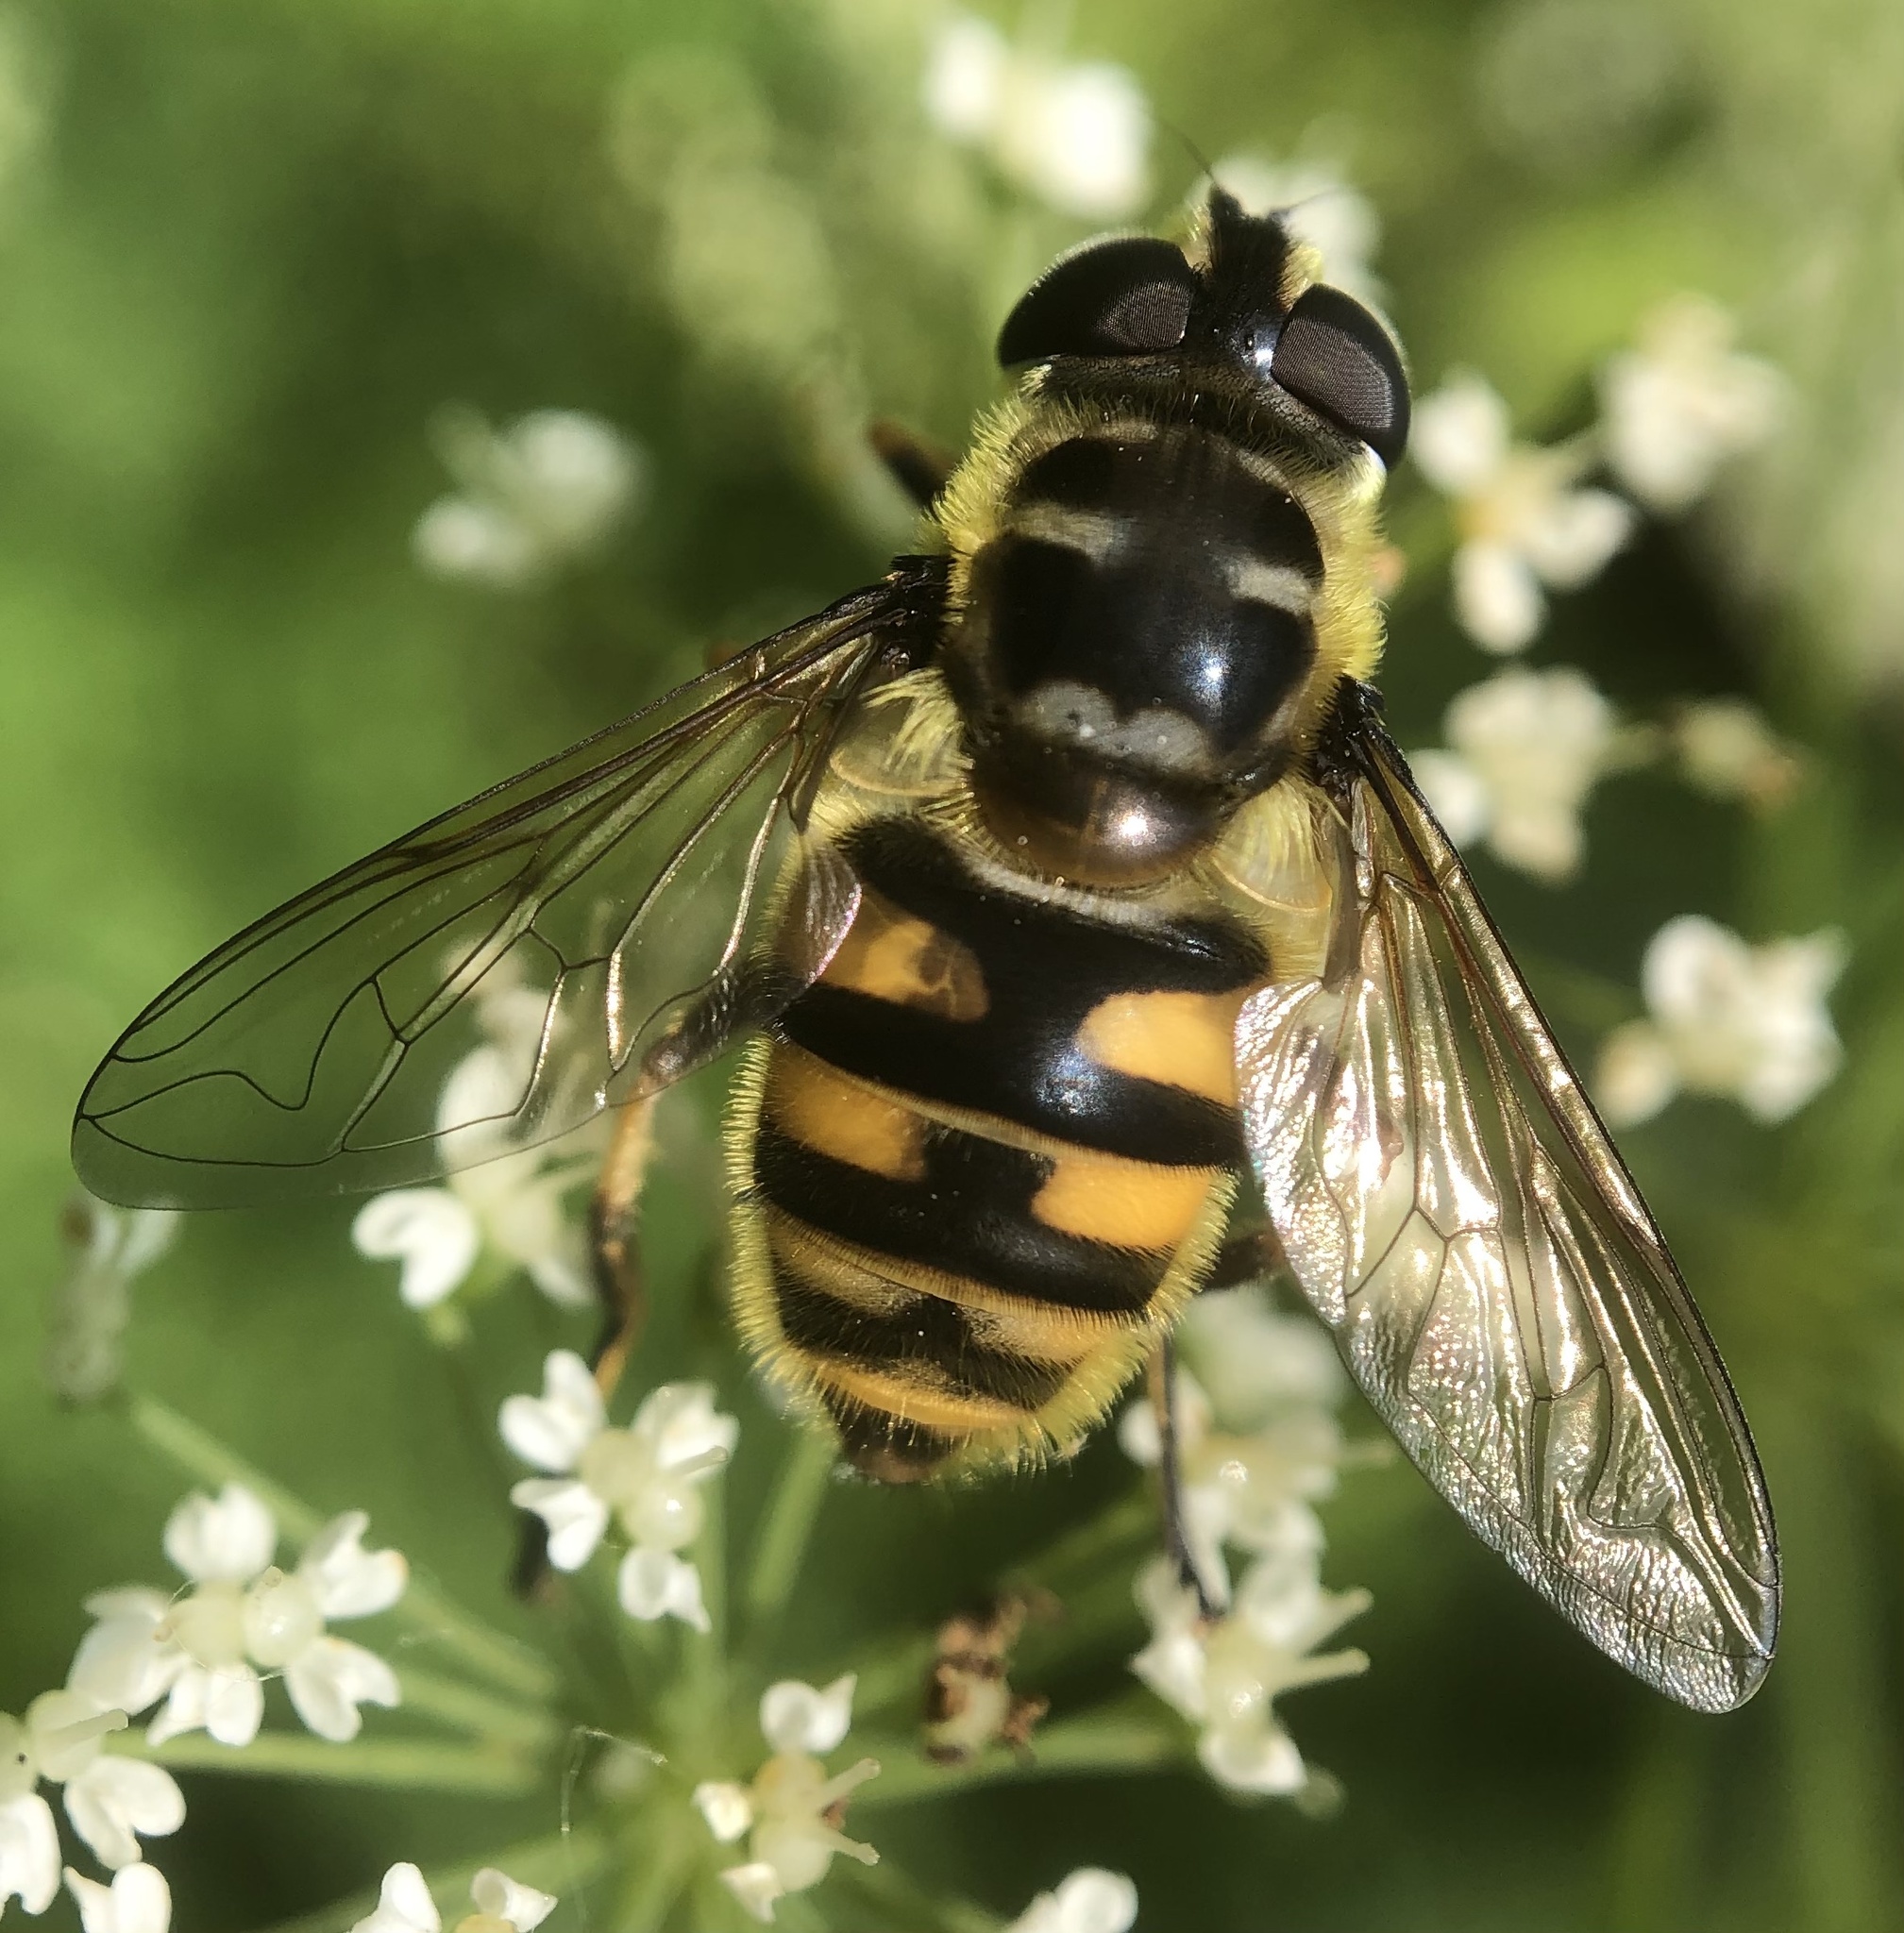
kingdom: Animalia
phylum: Arthropoda
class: Insecta
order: Diptera
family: Syrphidae
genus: Myathropa
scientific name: Myathropa florea
